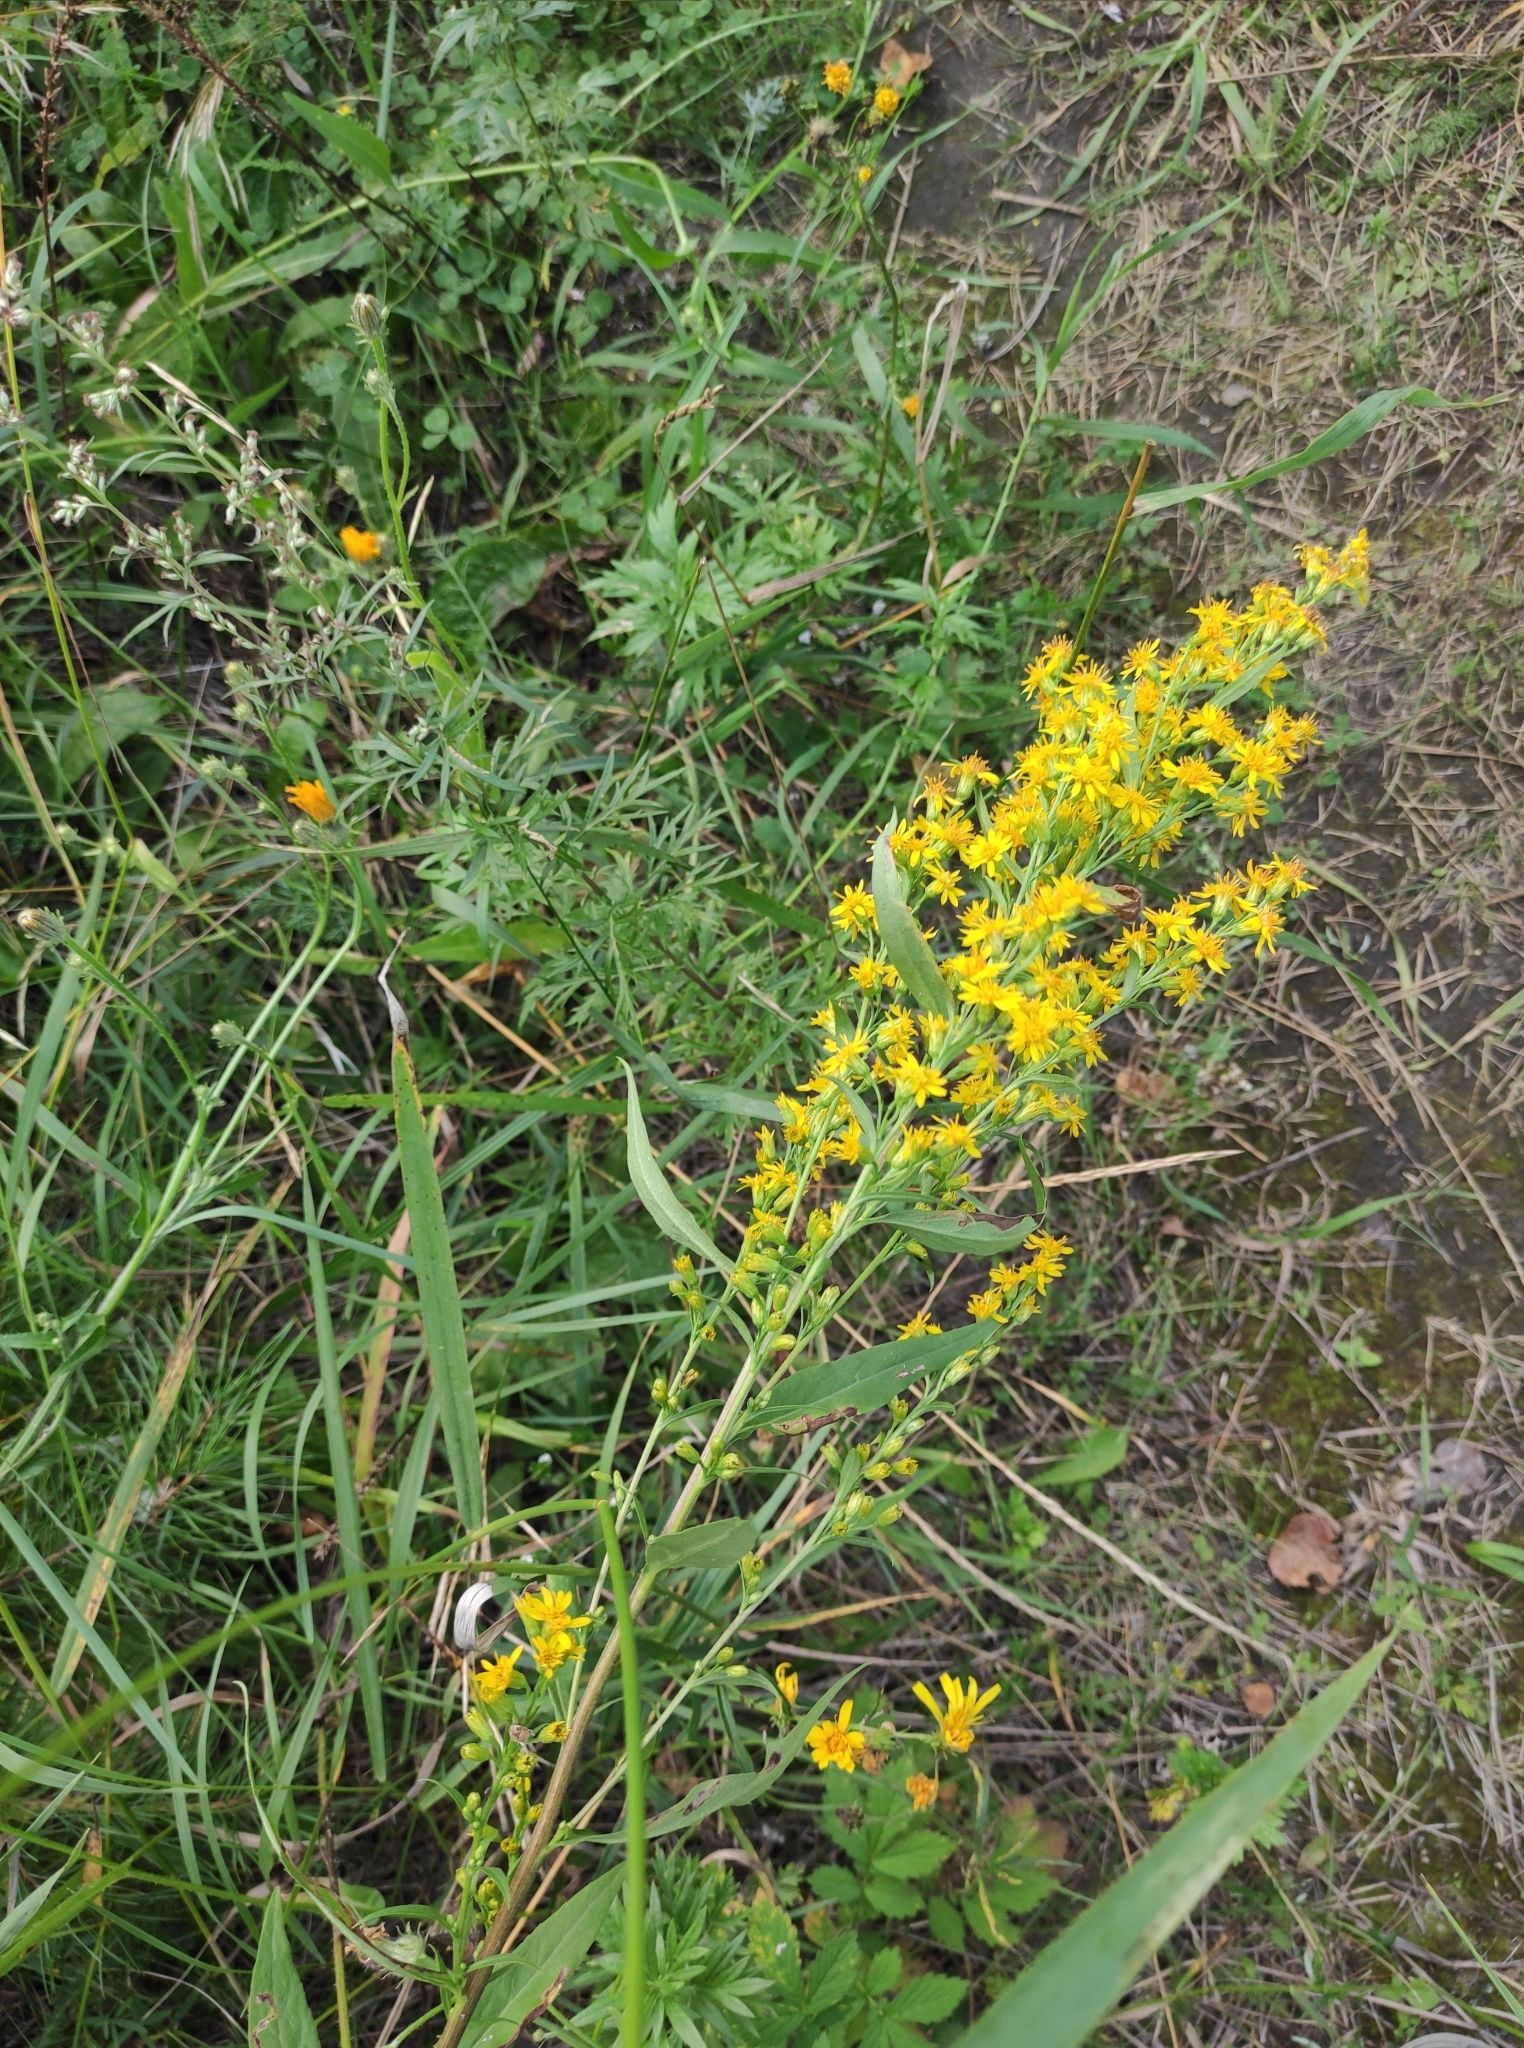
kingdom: Plantae
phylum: Tracheophyta
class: Magnoliopsida
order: Asterales
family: Asteraceae
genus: Solidago
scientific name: Solidago dahurica
